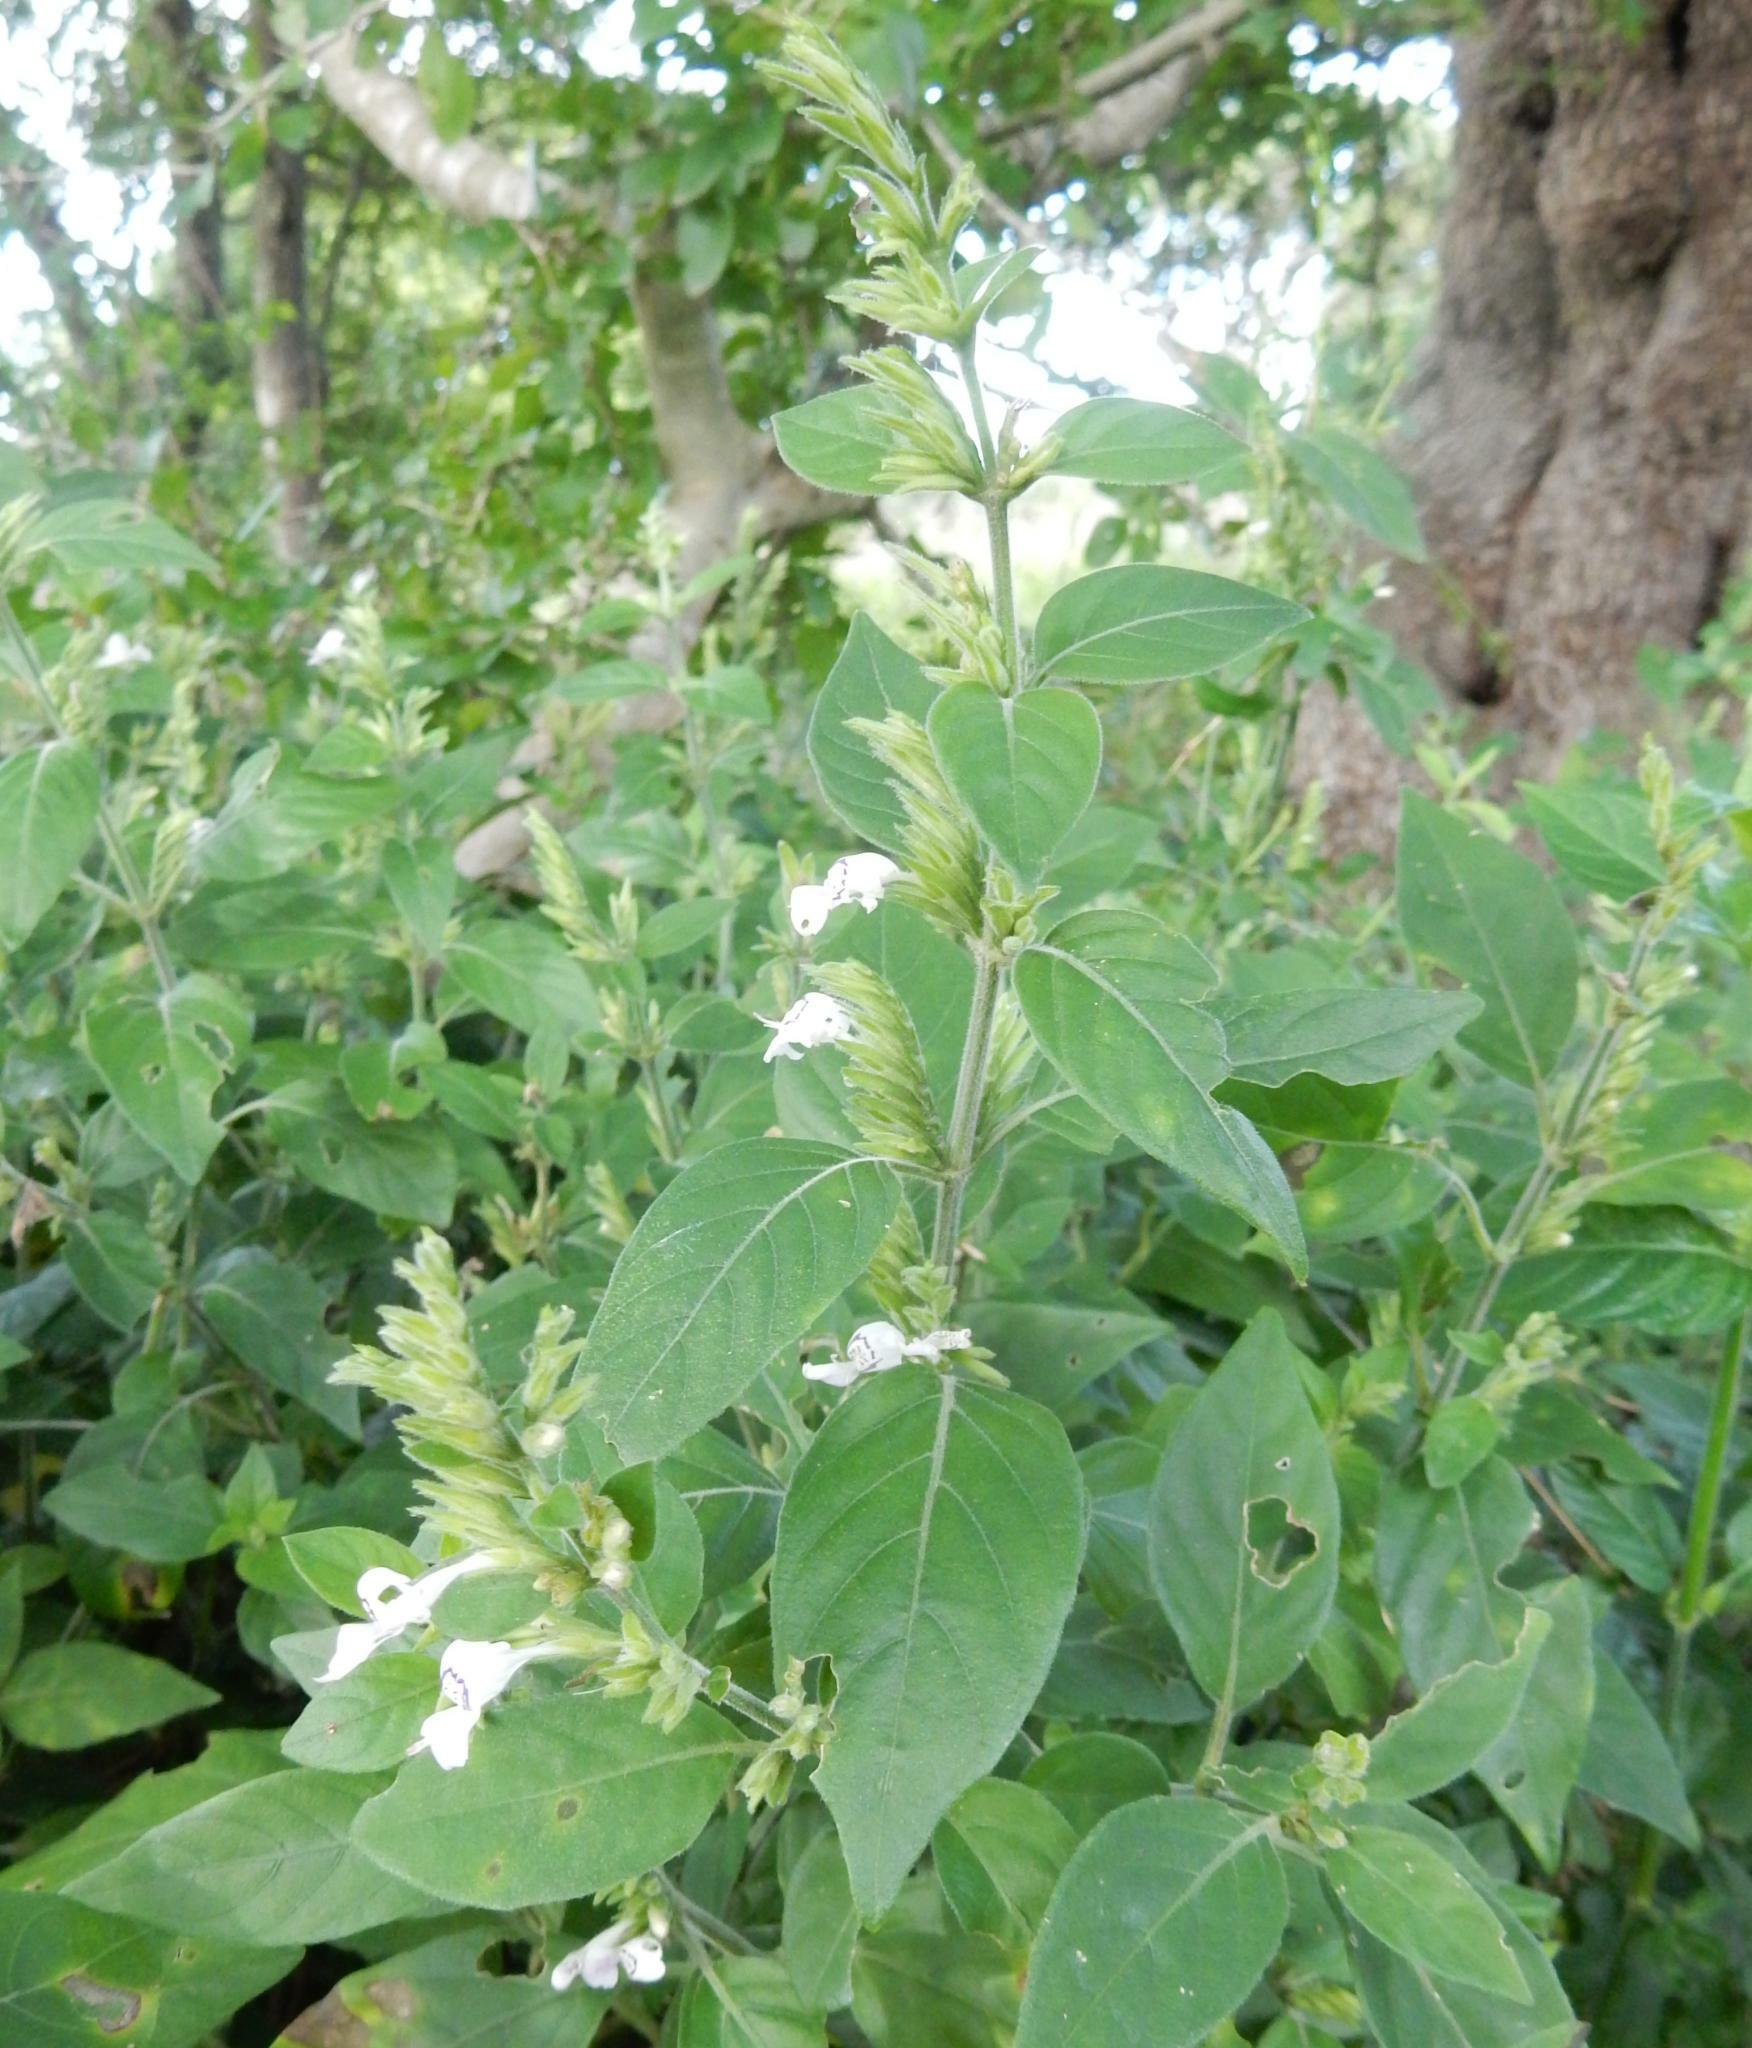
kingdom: Plantae
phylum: Tracheophyta
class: Magnoliopsida
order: Lamiales
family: Acanthaceae
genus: Hypoestes
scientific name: Hypoestes forskaolii
